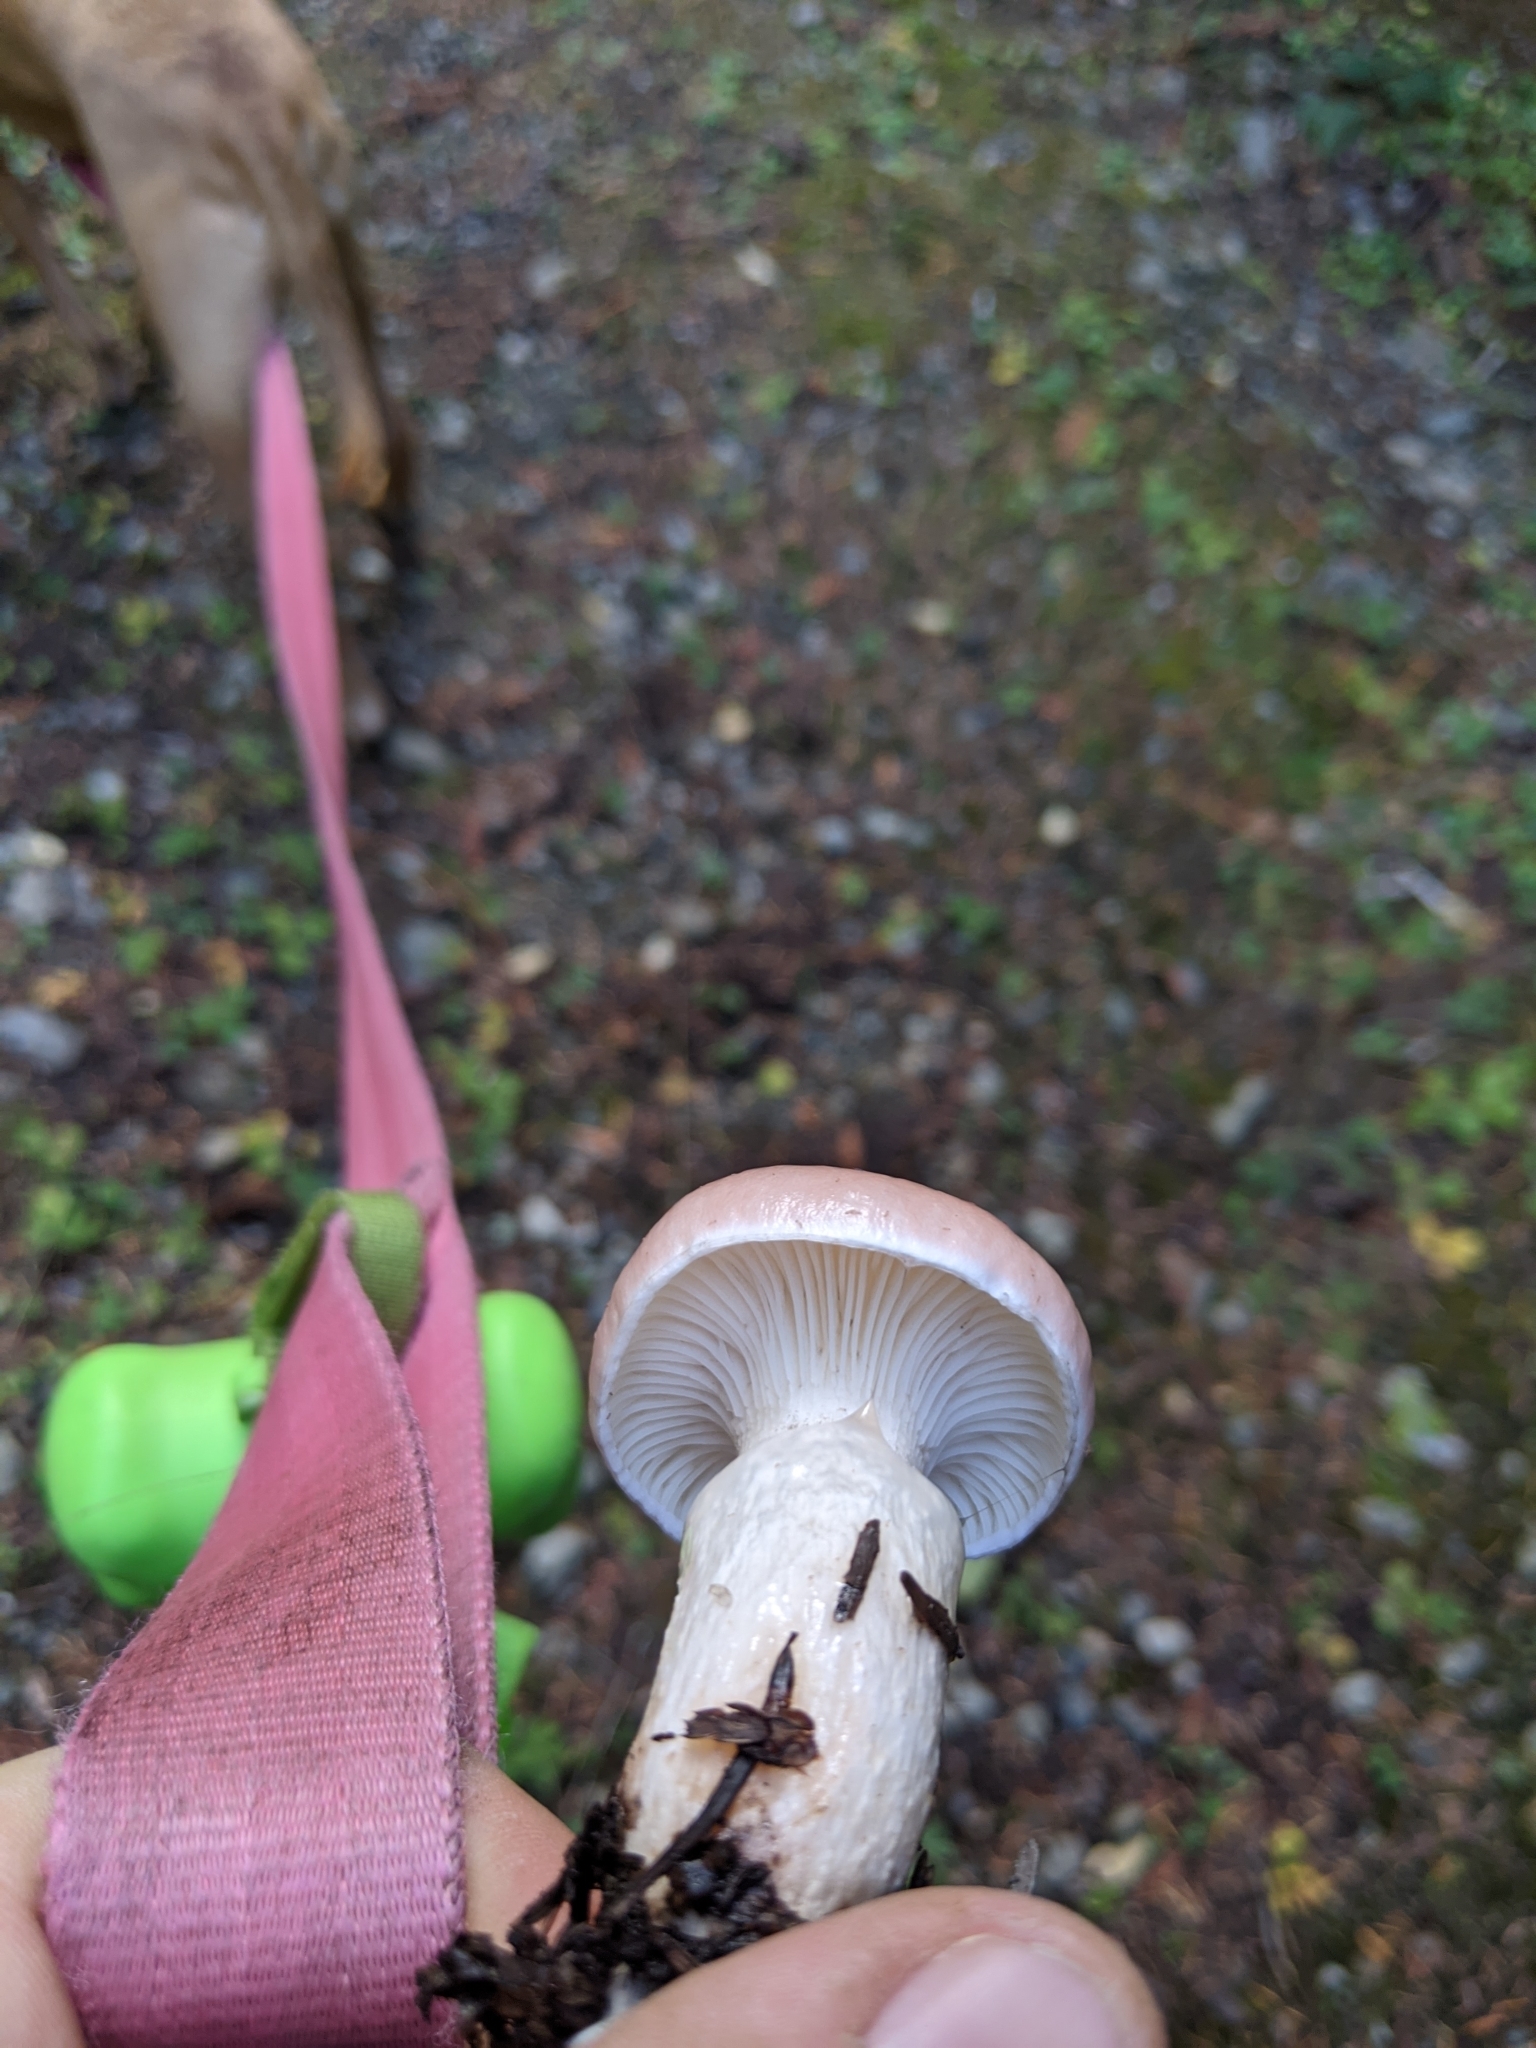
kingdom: Fungi
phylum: Basidiomycota
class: Agaricomycetes
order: Boletales
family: Gomphidiaceae
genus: Gomphidius
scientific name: Gomphidius subroseus
